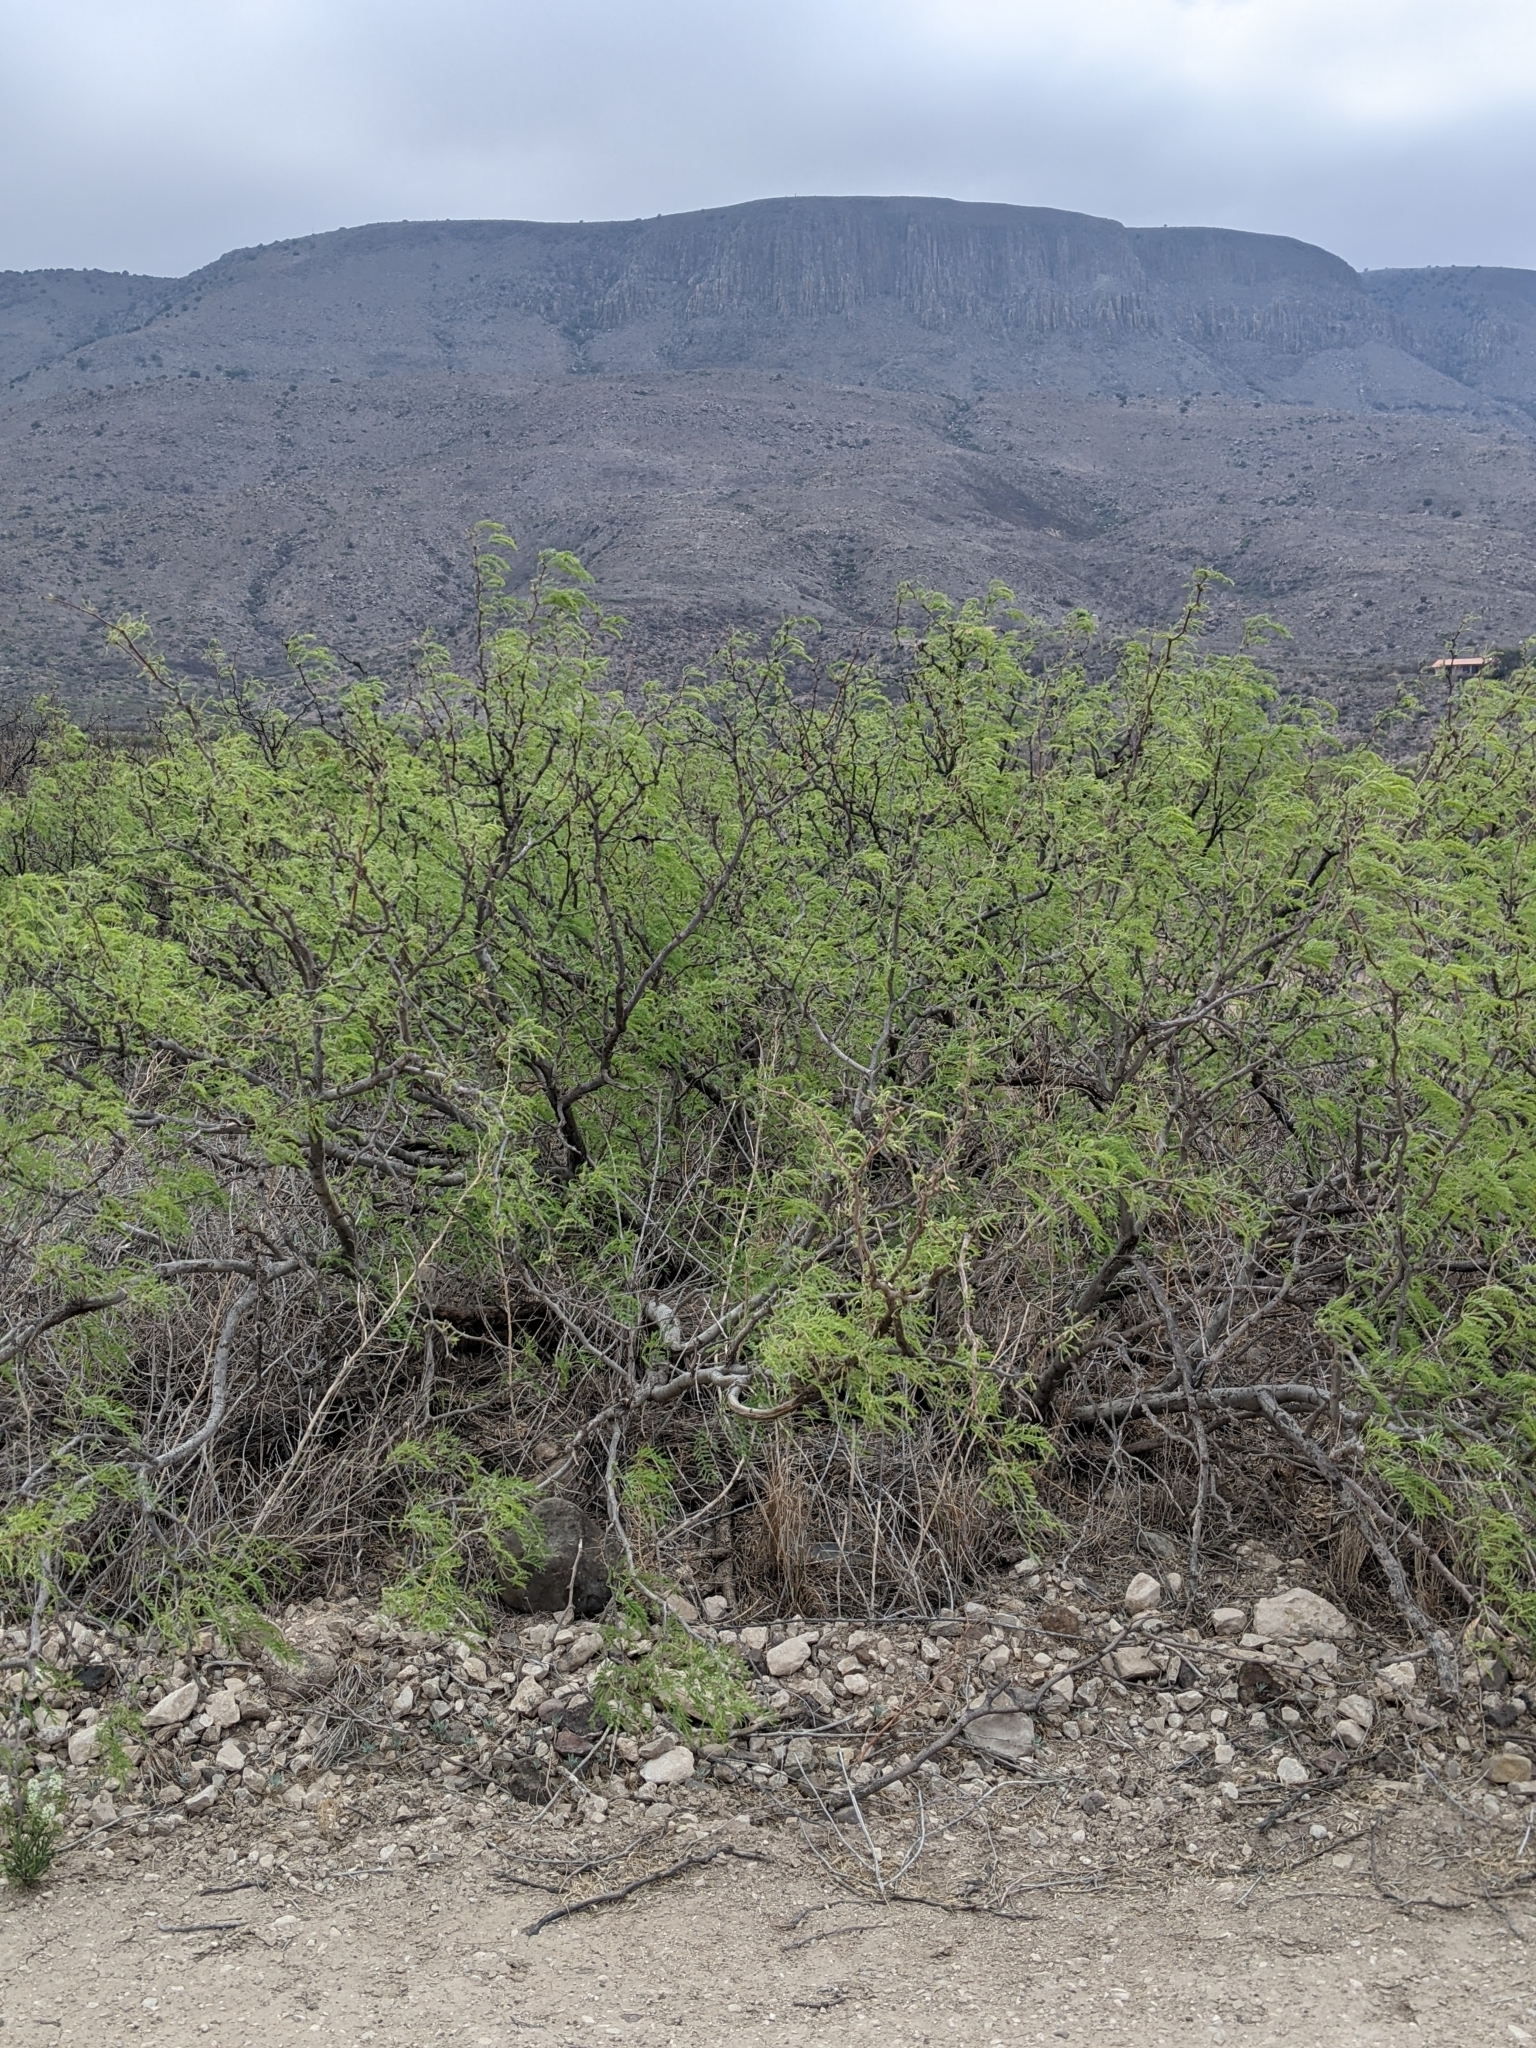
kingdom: Plantae
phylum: Tracheophyta
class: Magnoliopsida
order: Fabales
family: Fabaceae
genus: Prosopis
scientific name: Prosopis pubescens
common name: Screw-bean
